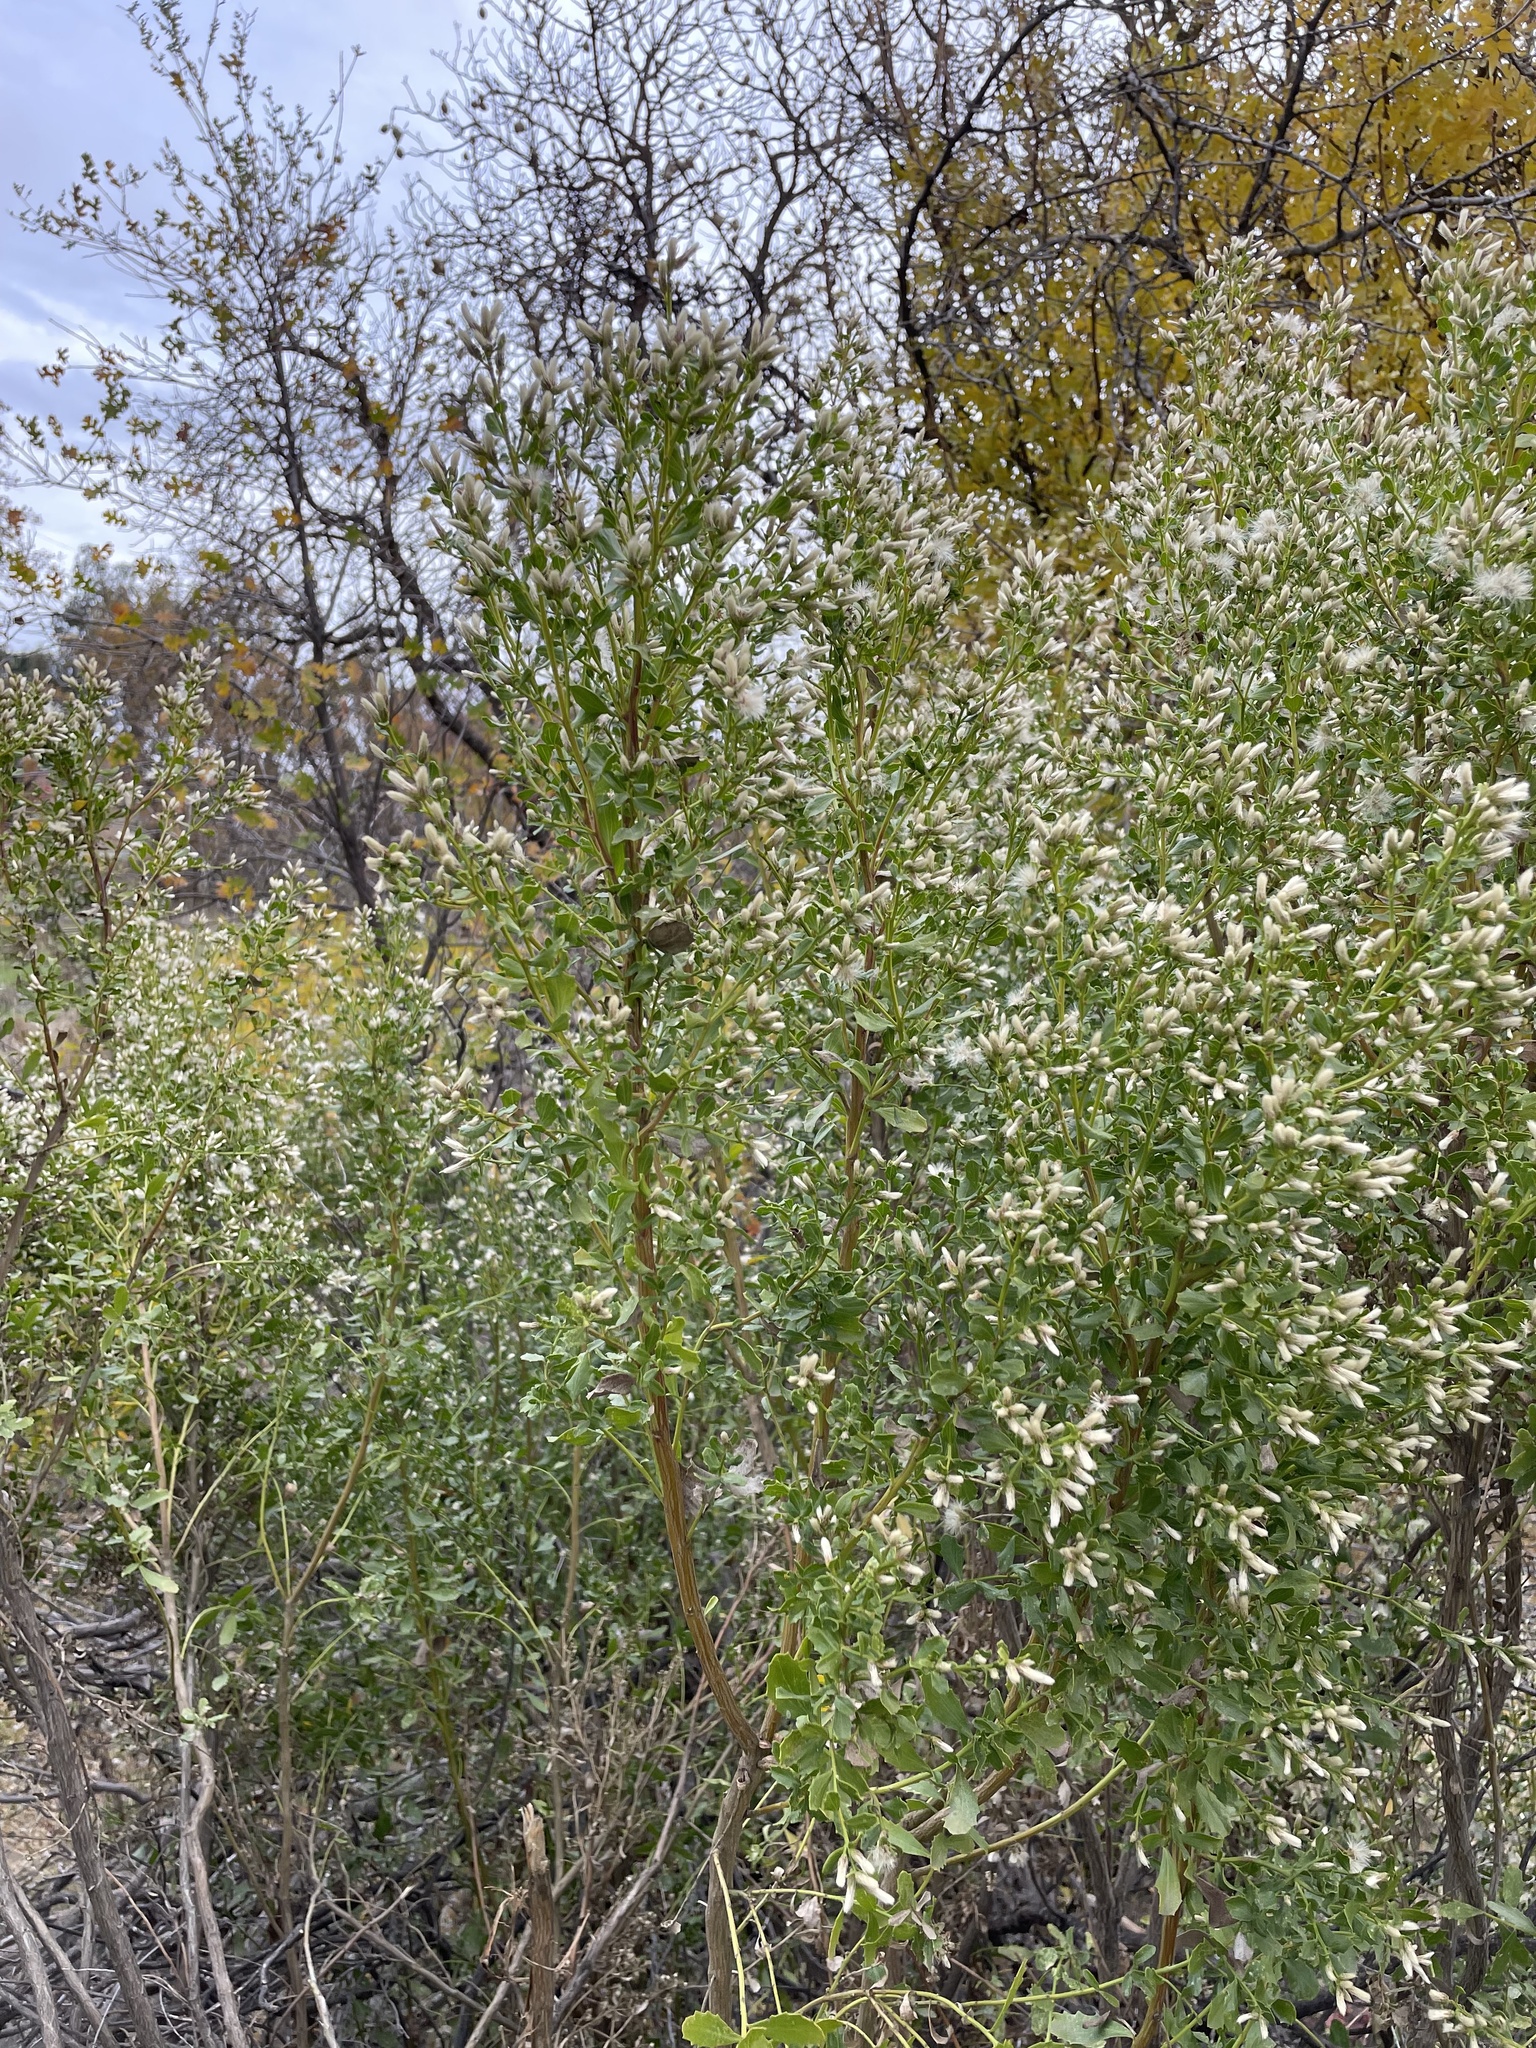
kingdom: Plantae
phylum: Tracheophyta
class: Magnoliopsida
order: Asterales
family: Asteraceae
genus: Baccharis
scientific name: Baccharis pilularis
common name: Coyotebrush
